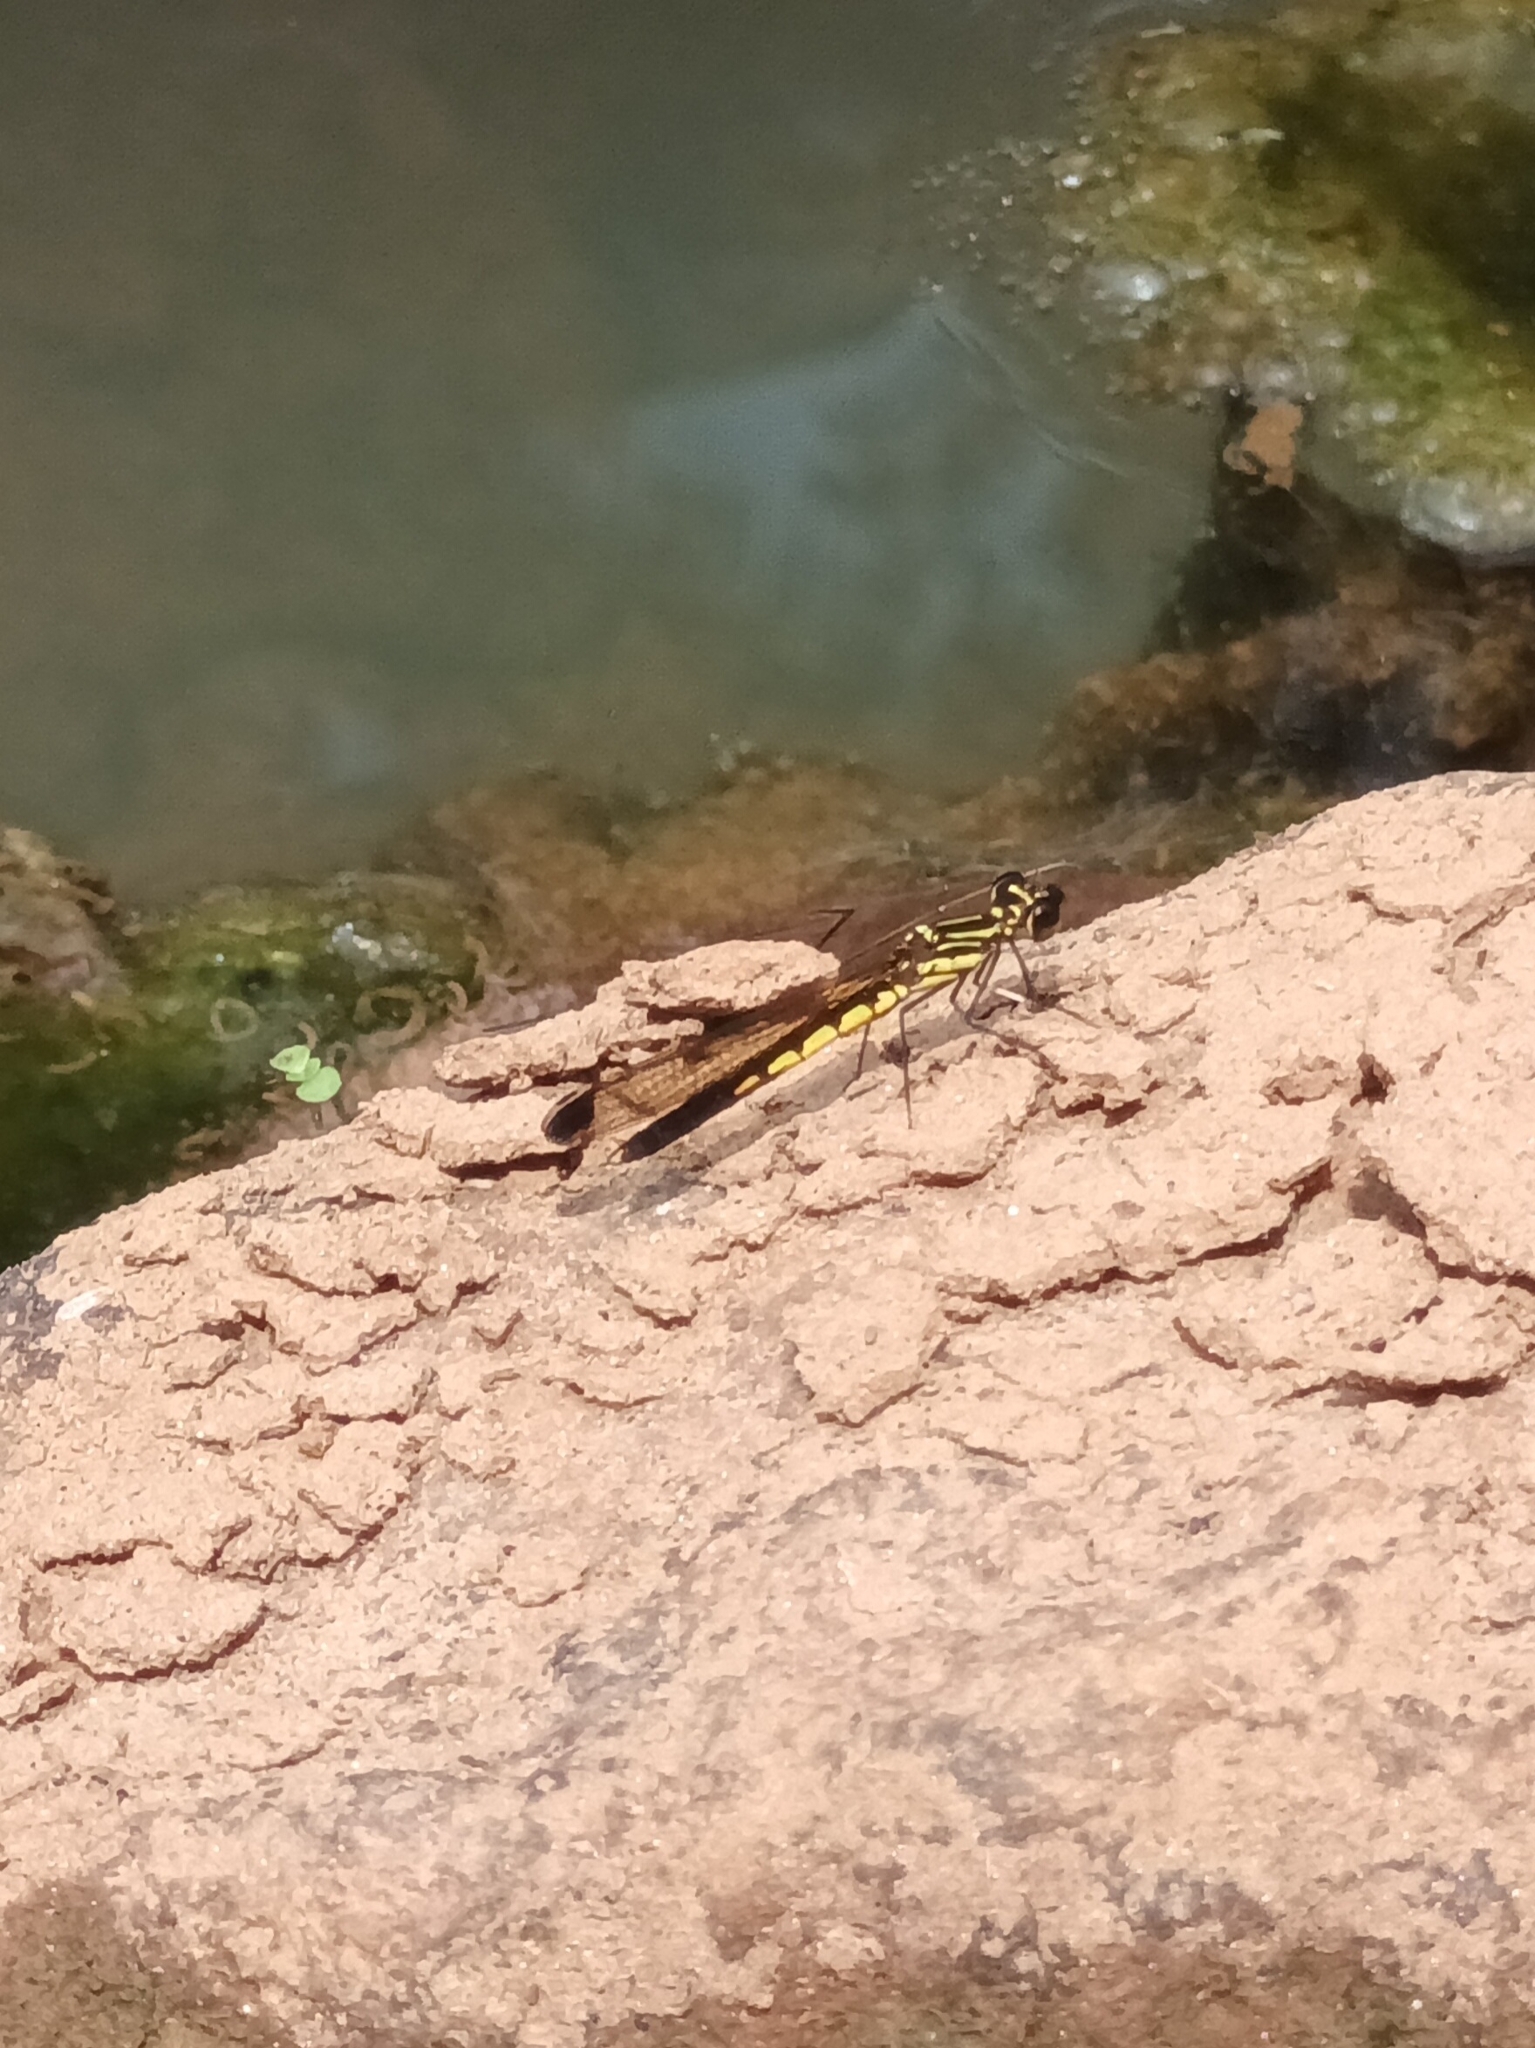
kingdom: Animalia
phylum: Arthropoda
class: Insecta
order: Odonata
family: Chlorocyphidae
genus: Libellago
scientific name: Libellago indica
